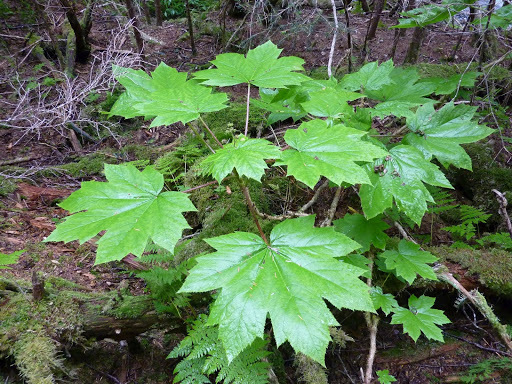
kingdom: Plantae
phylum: Tracheophyta
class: Magnoliopsida
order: Apiales
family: Araliaceae
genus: Oplopanax
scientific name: Oplopanax horridus
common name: Devil's walking-stick
